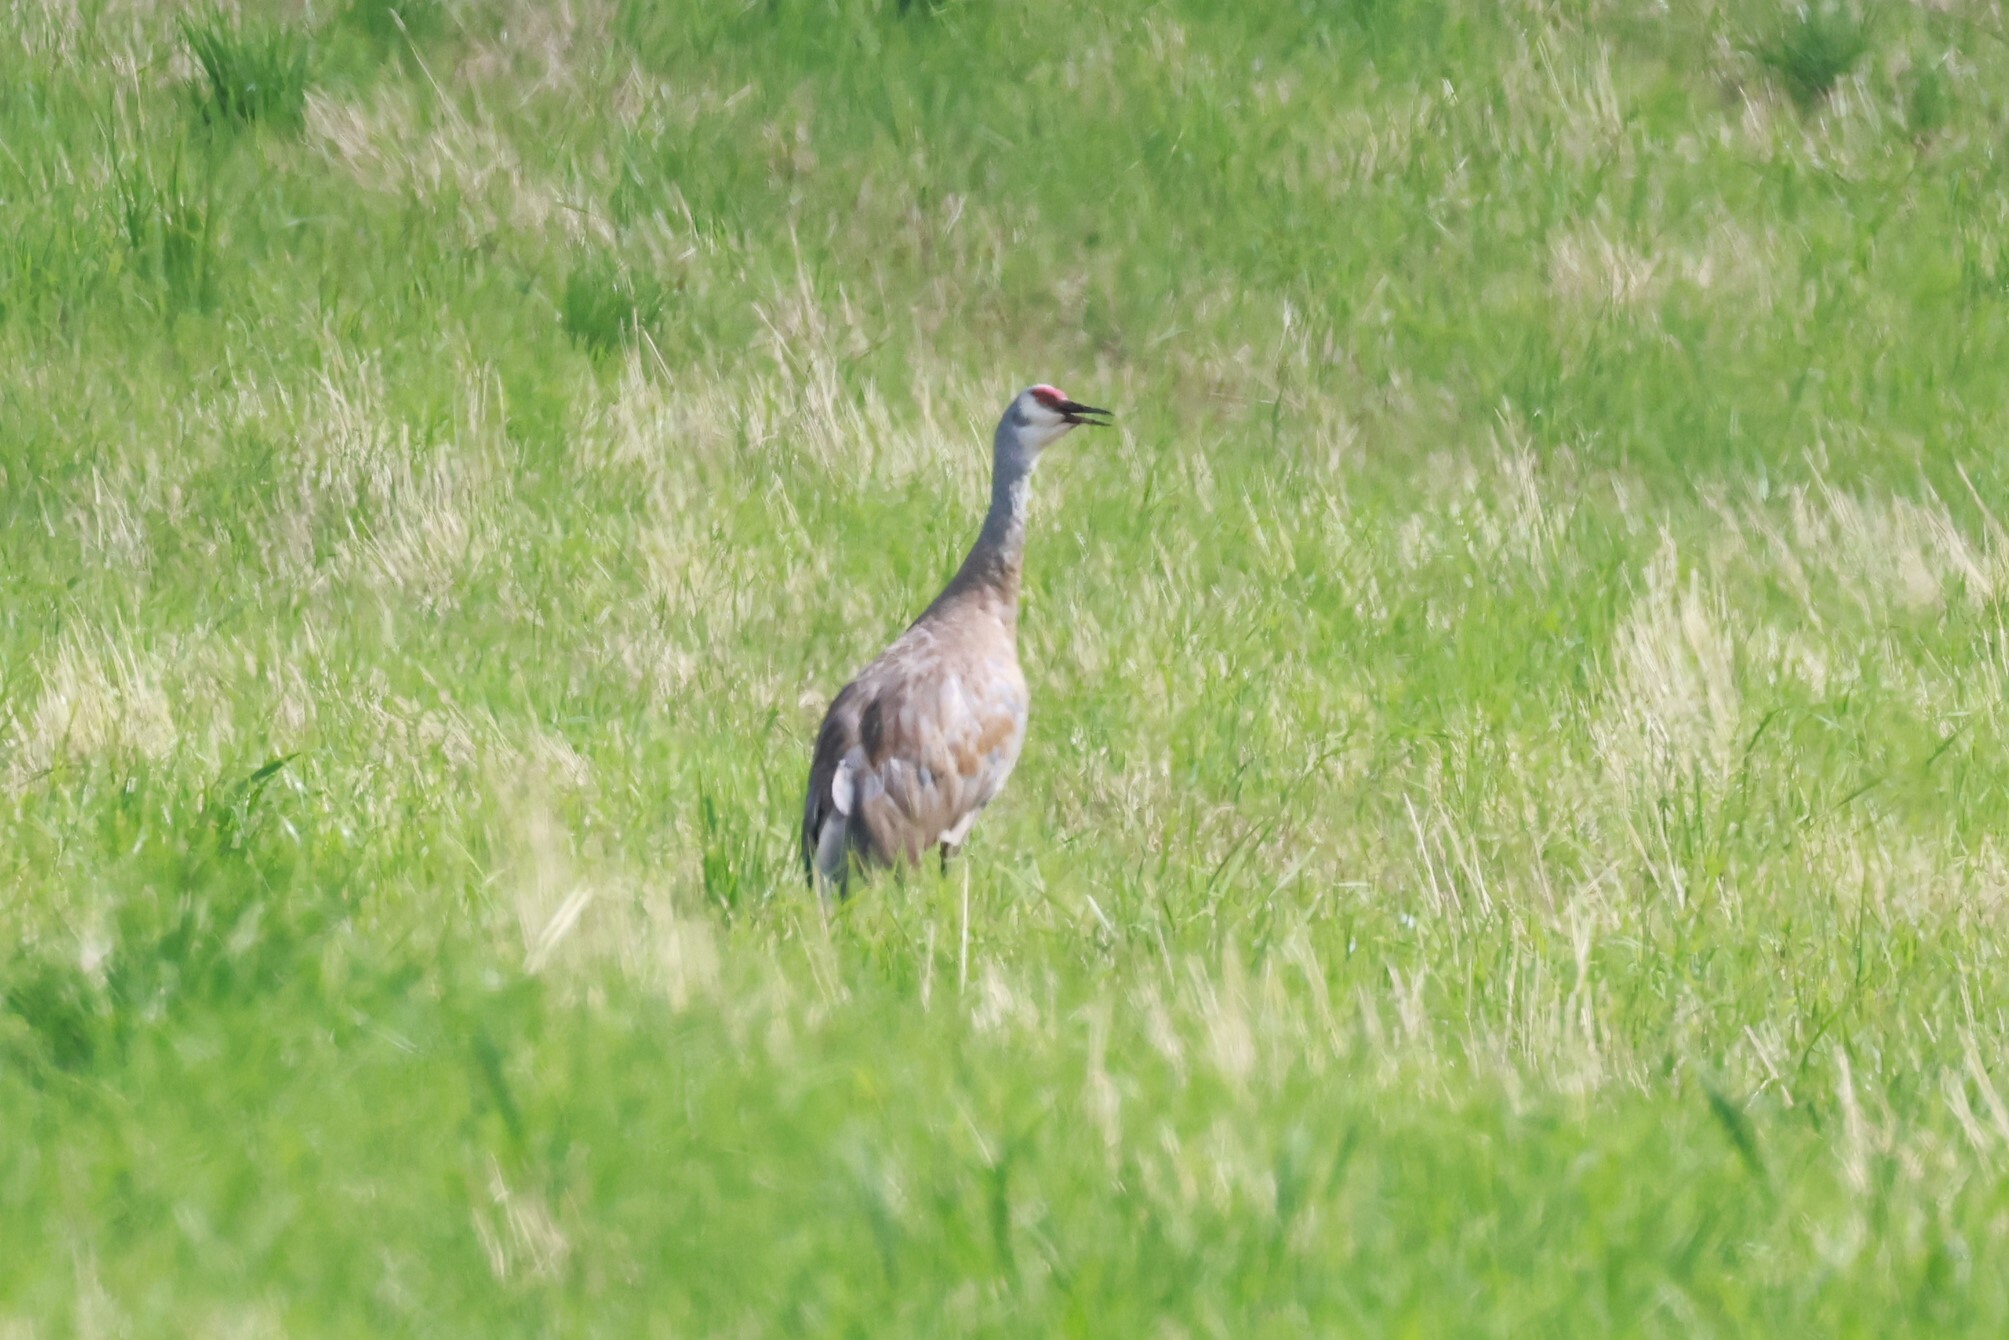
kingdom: Animalia
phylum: Chordata
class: Aves
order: Gruiformes
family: Gruidae
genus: Grus
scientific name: Grus canadensis
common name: Sandhill crane
